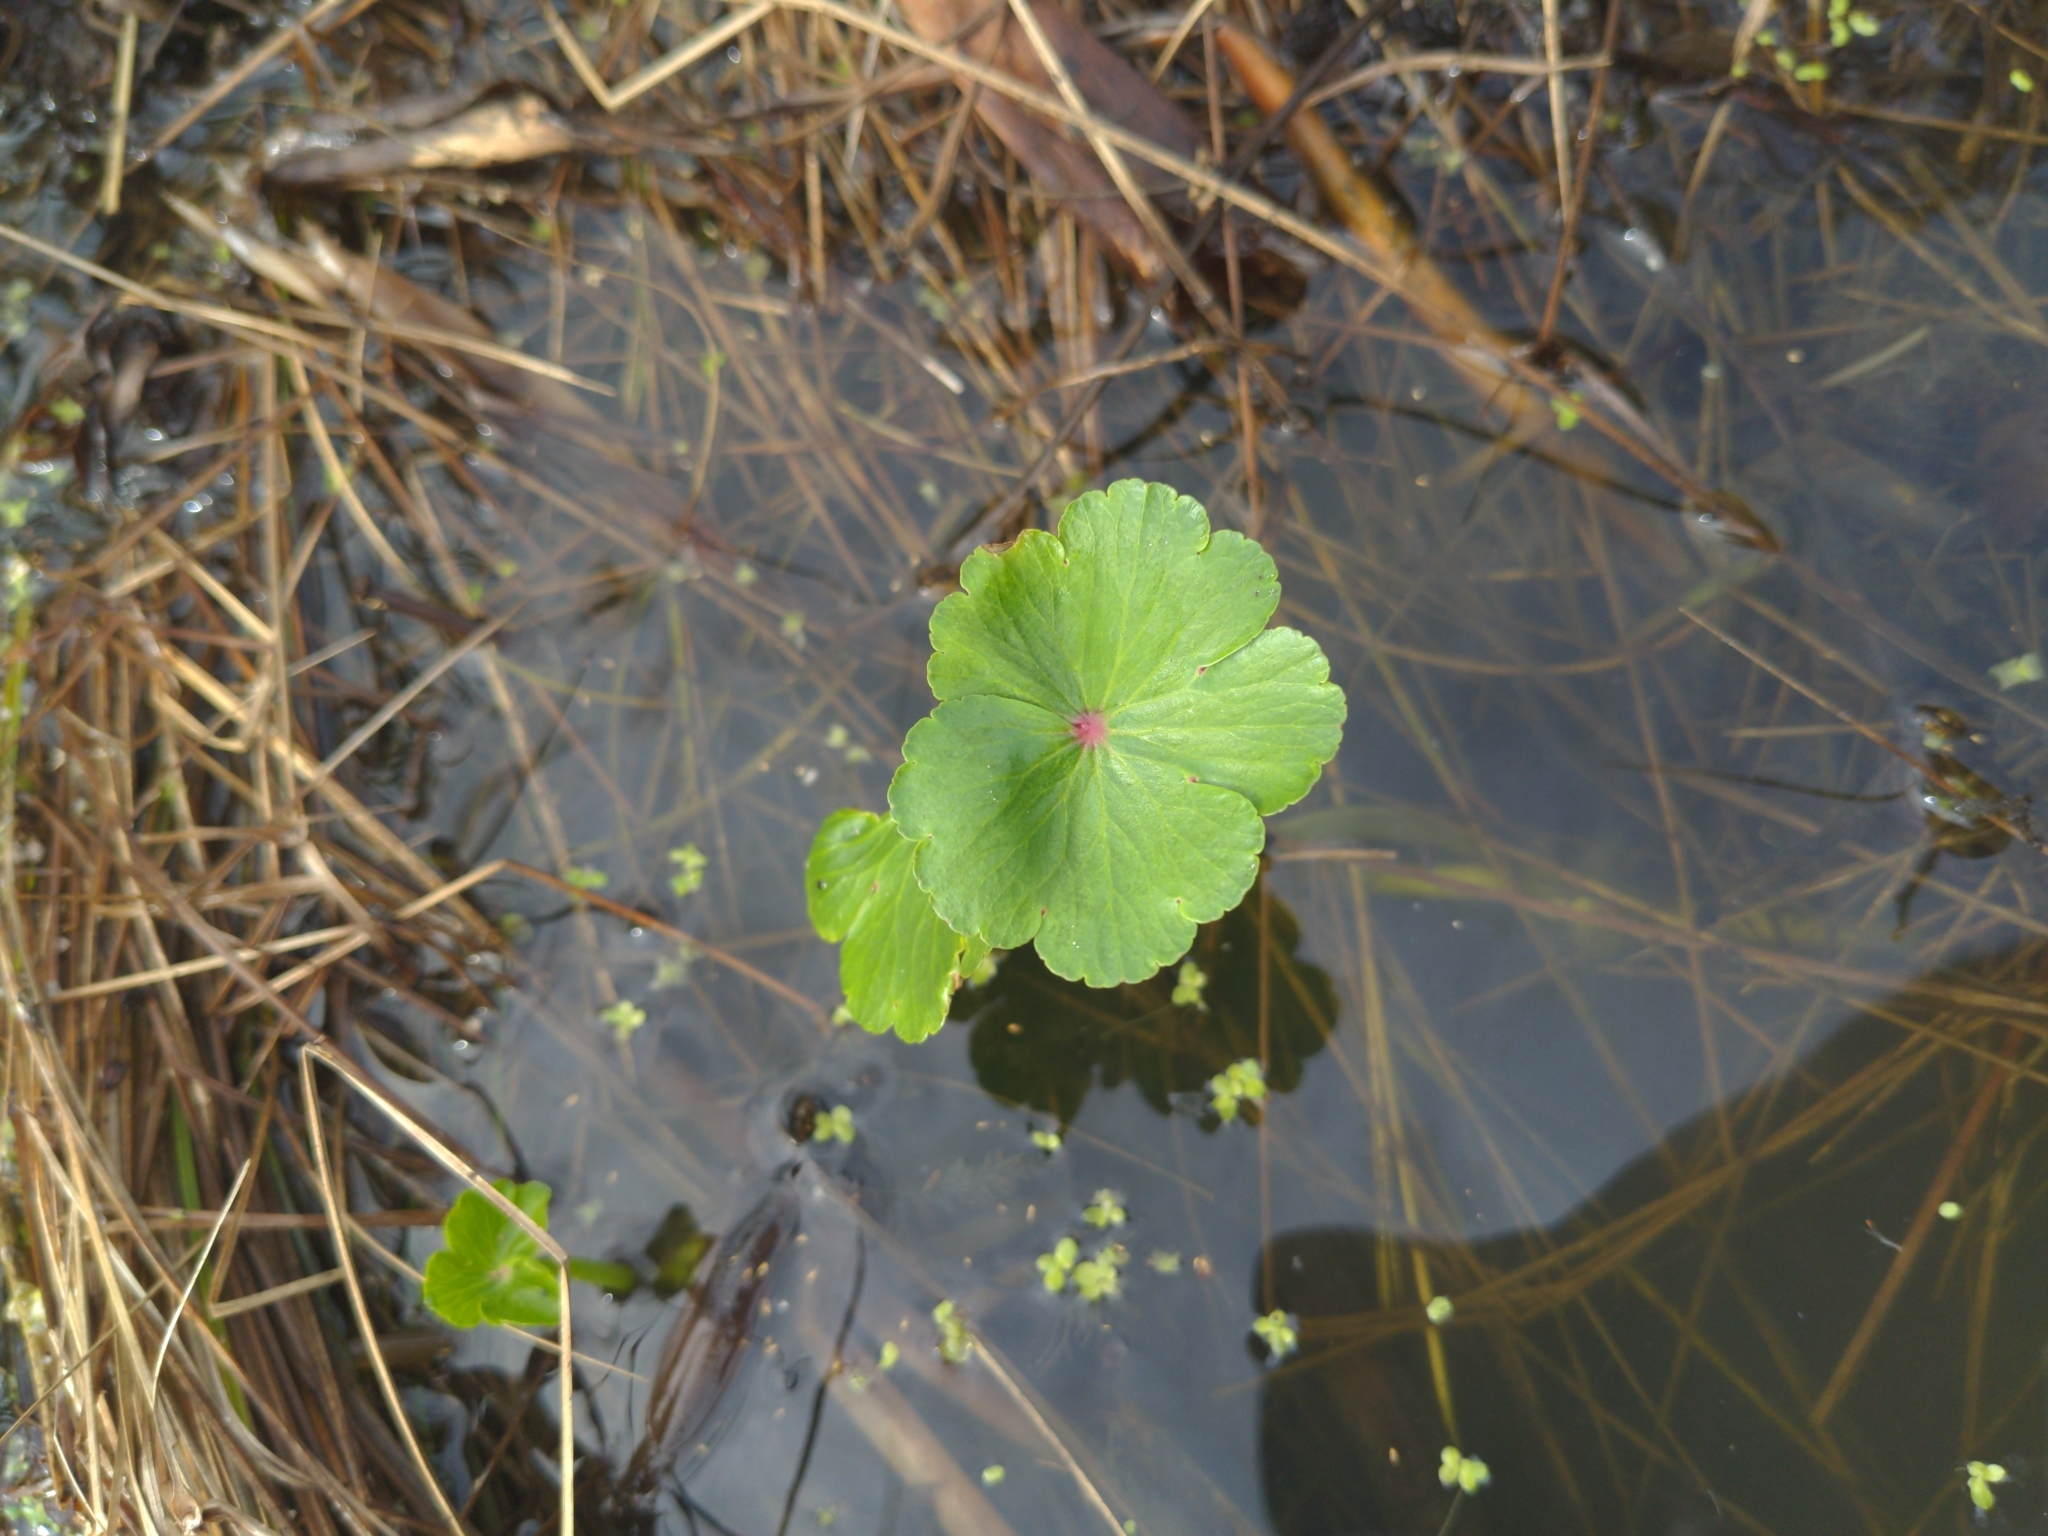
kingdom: Plantae
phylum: Tracheophyta
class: Magnoliopsida
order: Apiales
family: Araliaceae
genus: Hydrocotyle
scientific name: Hydrocotyle ranunculoides
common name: Floating pennywort
